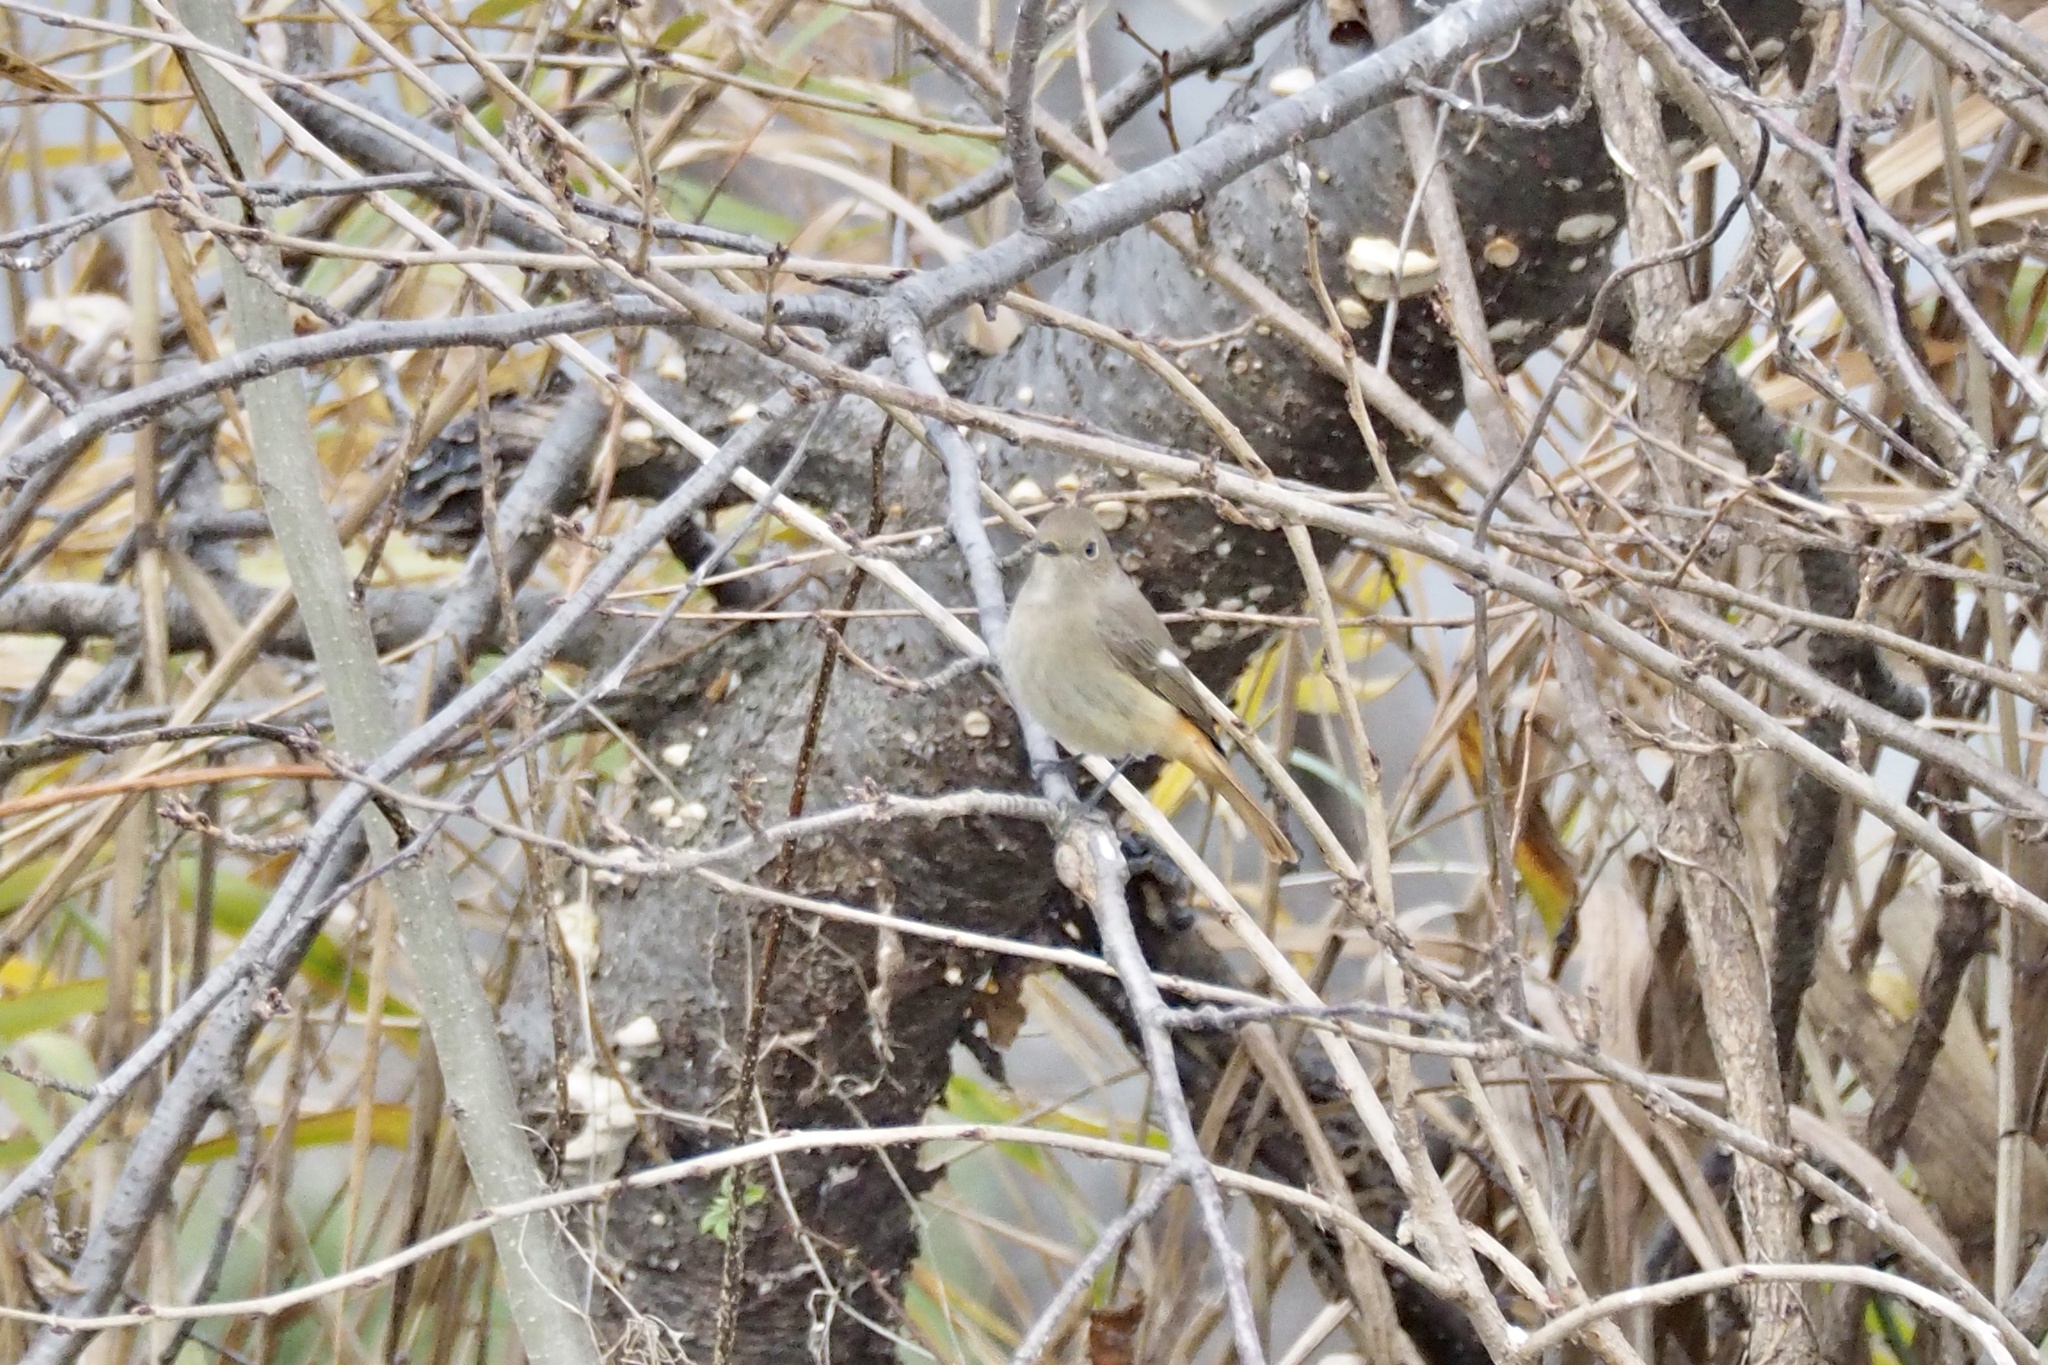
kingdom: Animalia
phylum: Chordata
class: Aves
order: Passeriformes
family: Muscicapidae
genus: Phoenicurus
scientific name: Phoenicurus auroreus
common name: Daurian redstart
